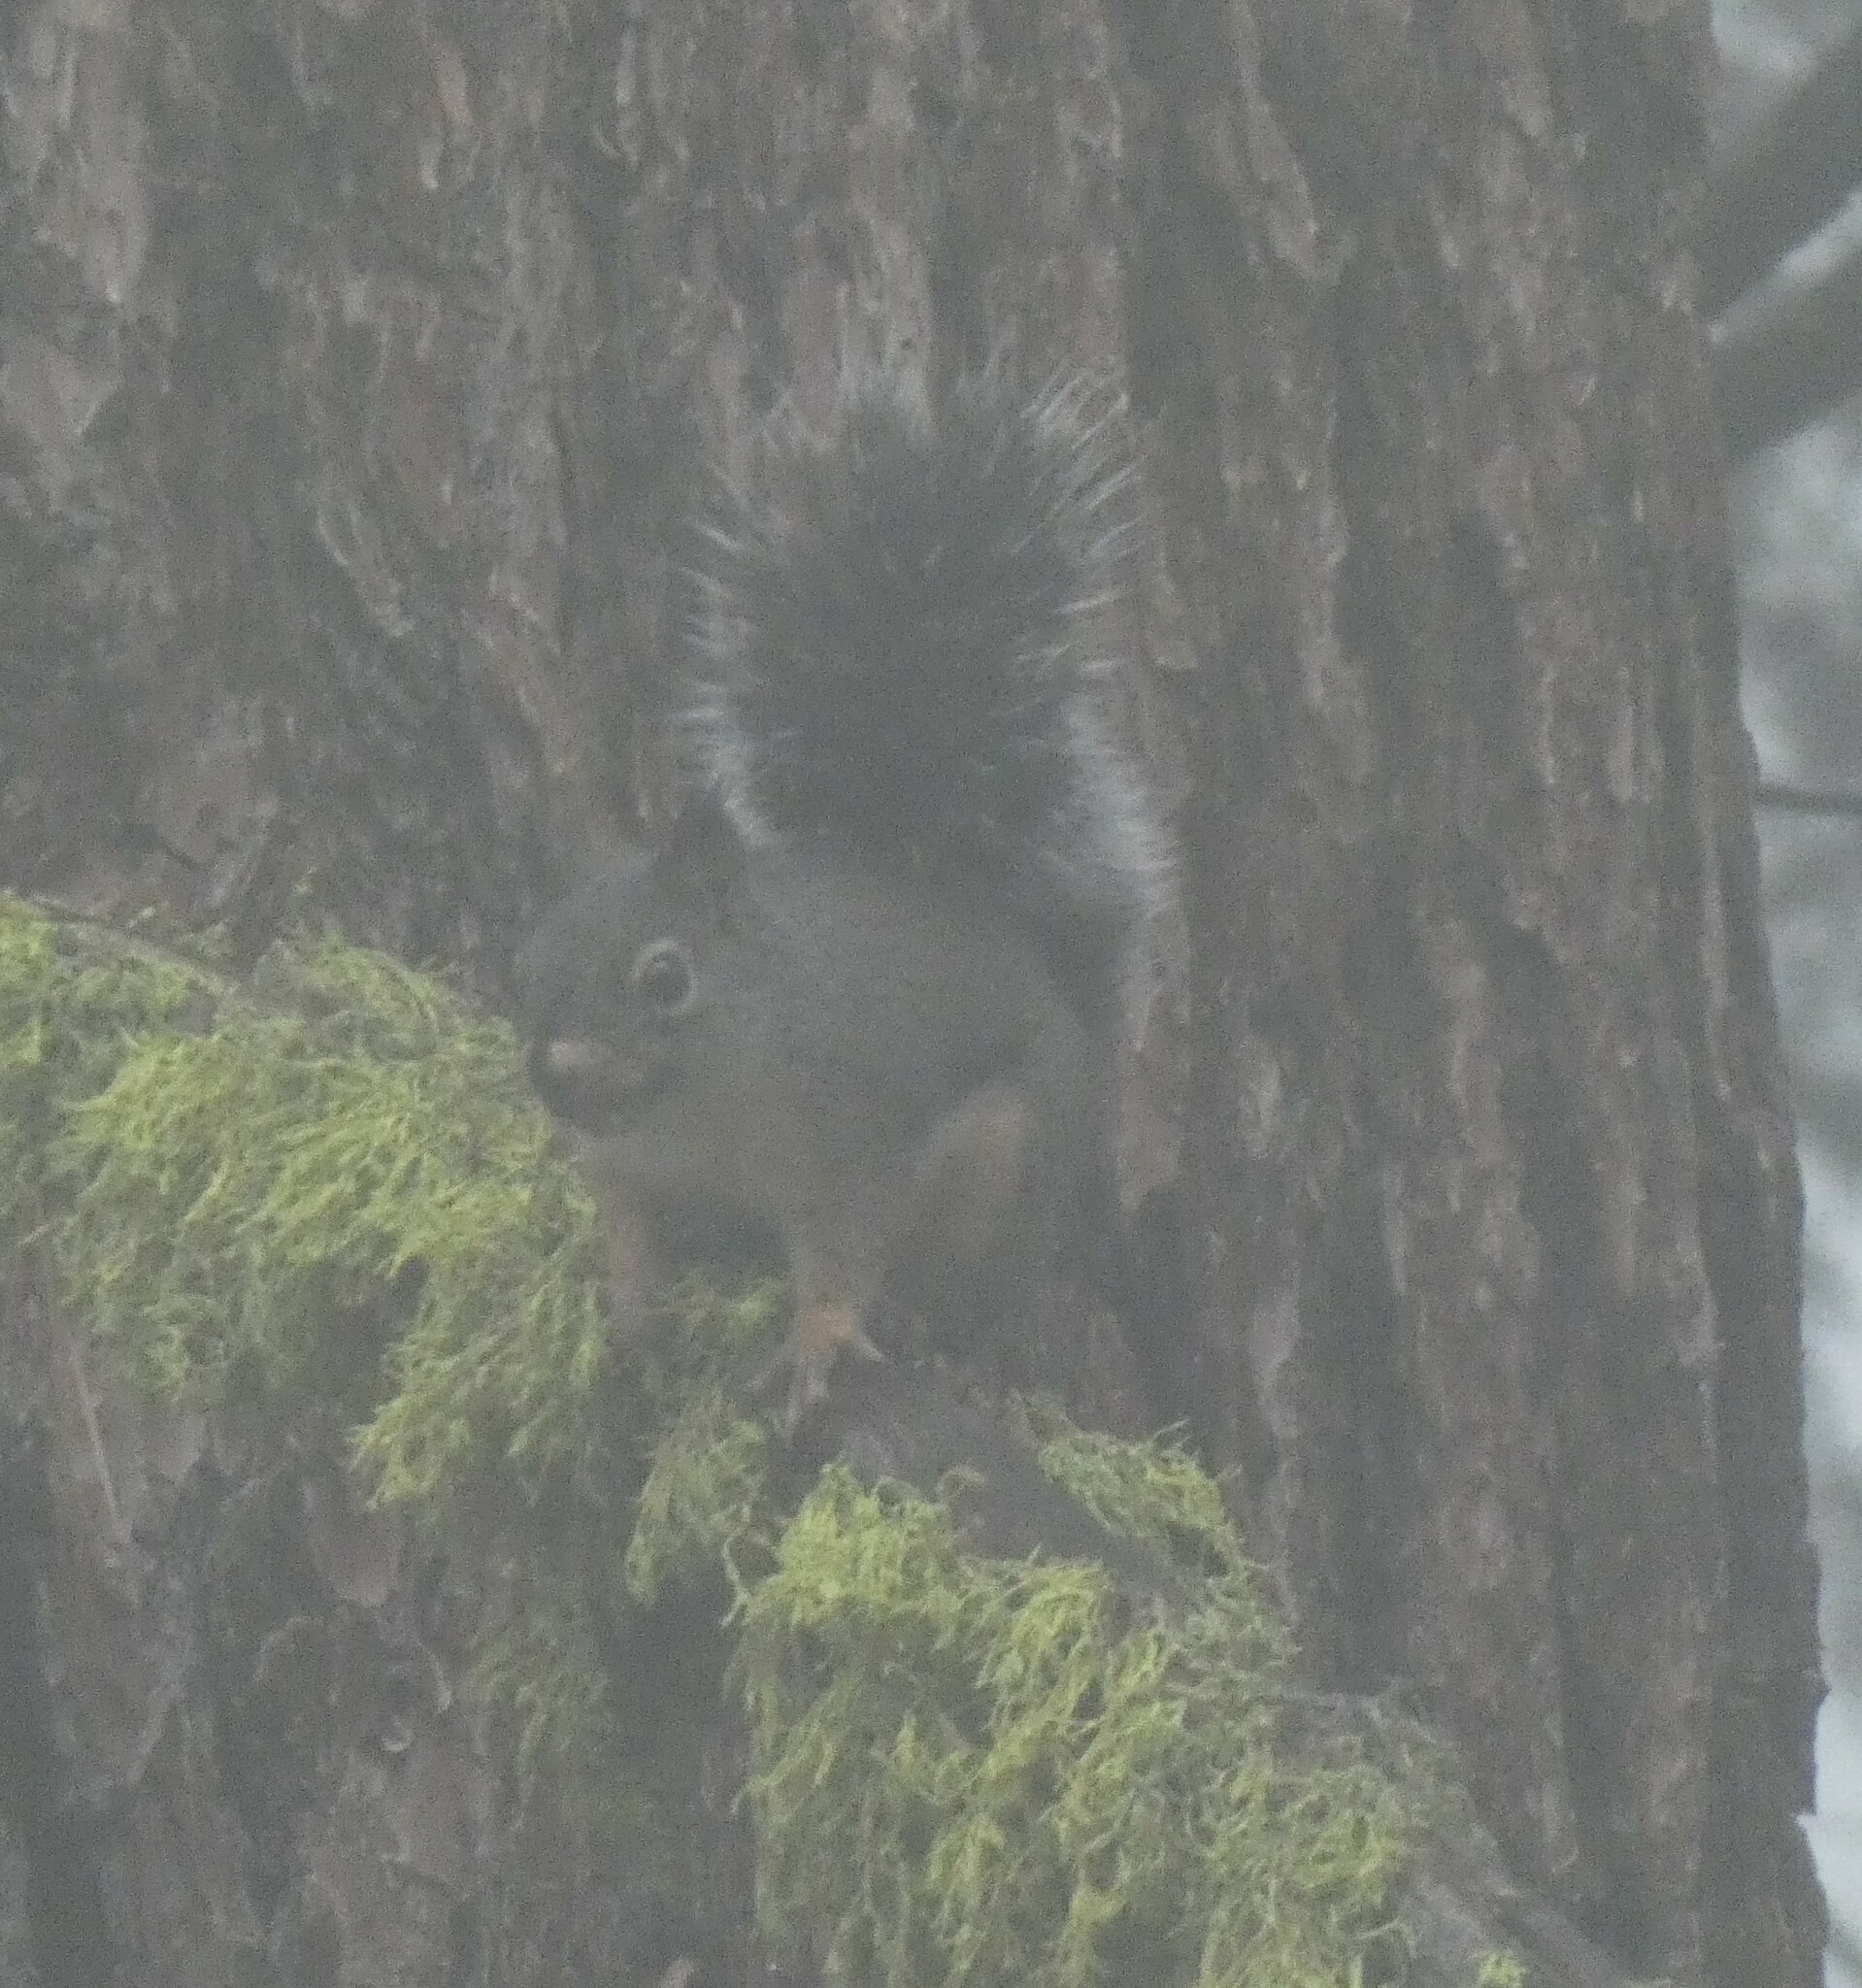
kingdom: Animalia
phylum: Chordata
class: Mammalia
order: Rodentia
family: Sciuridae
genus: Tamiasciurus
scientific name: Tamiasciurus douglasii
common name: Douglas's squirrel
